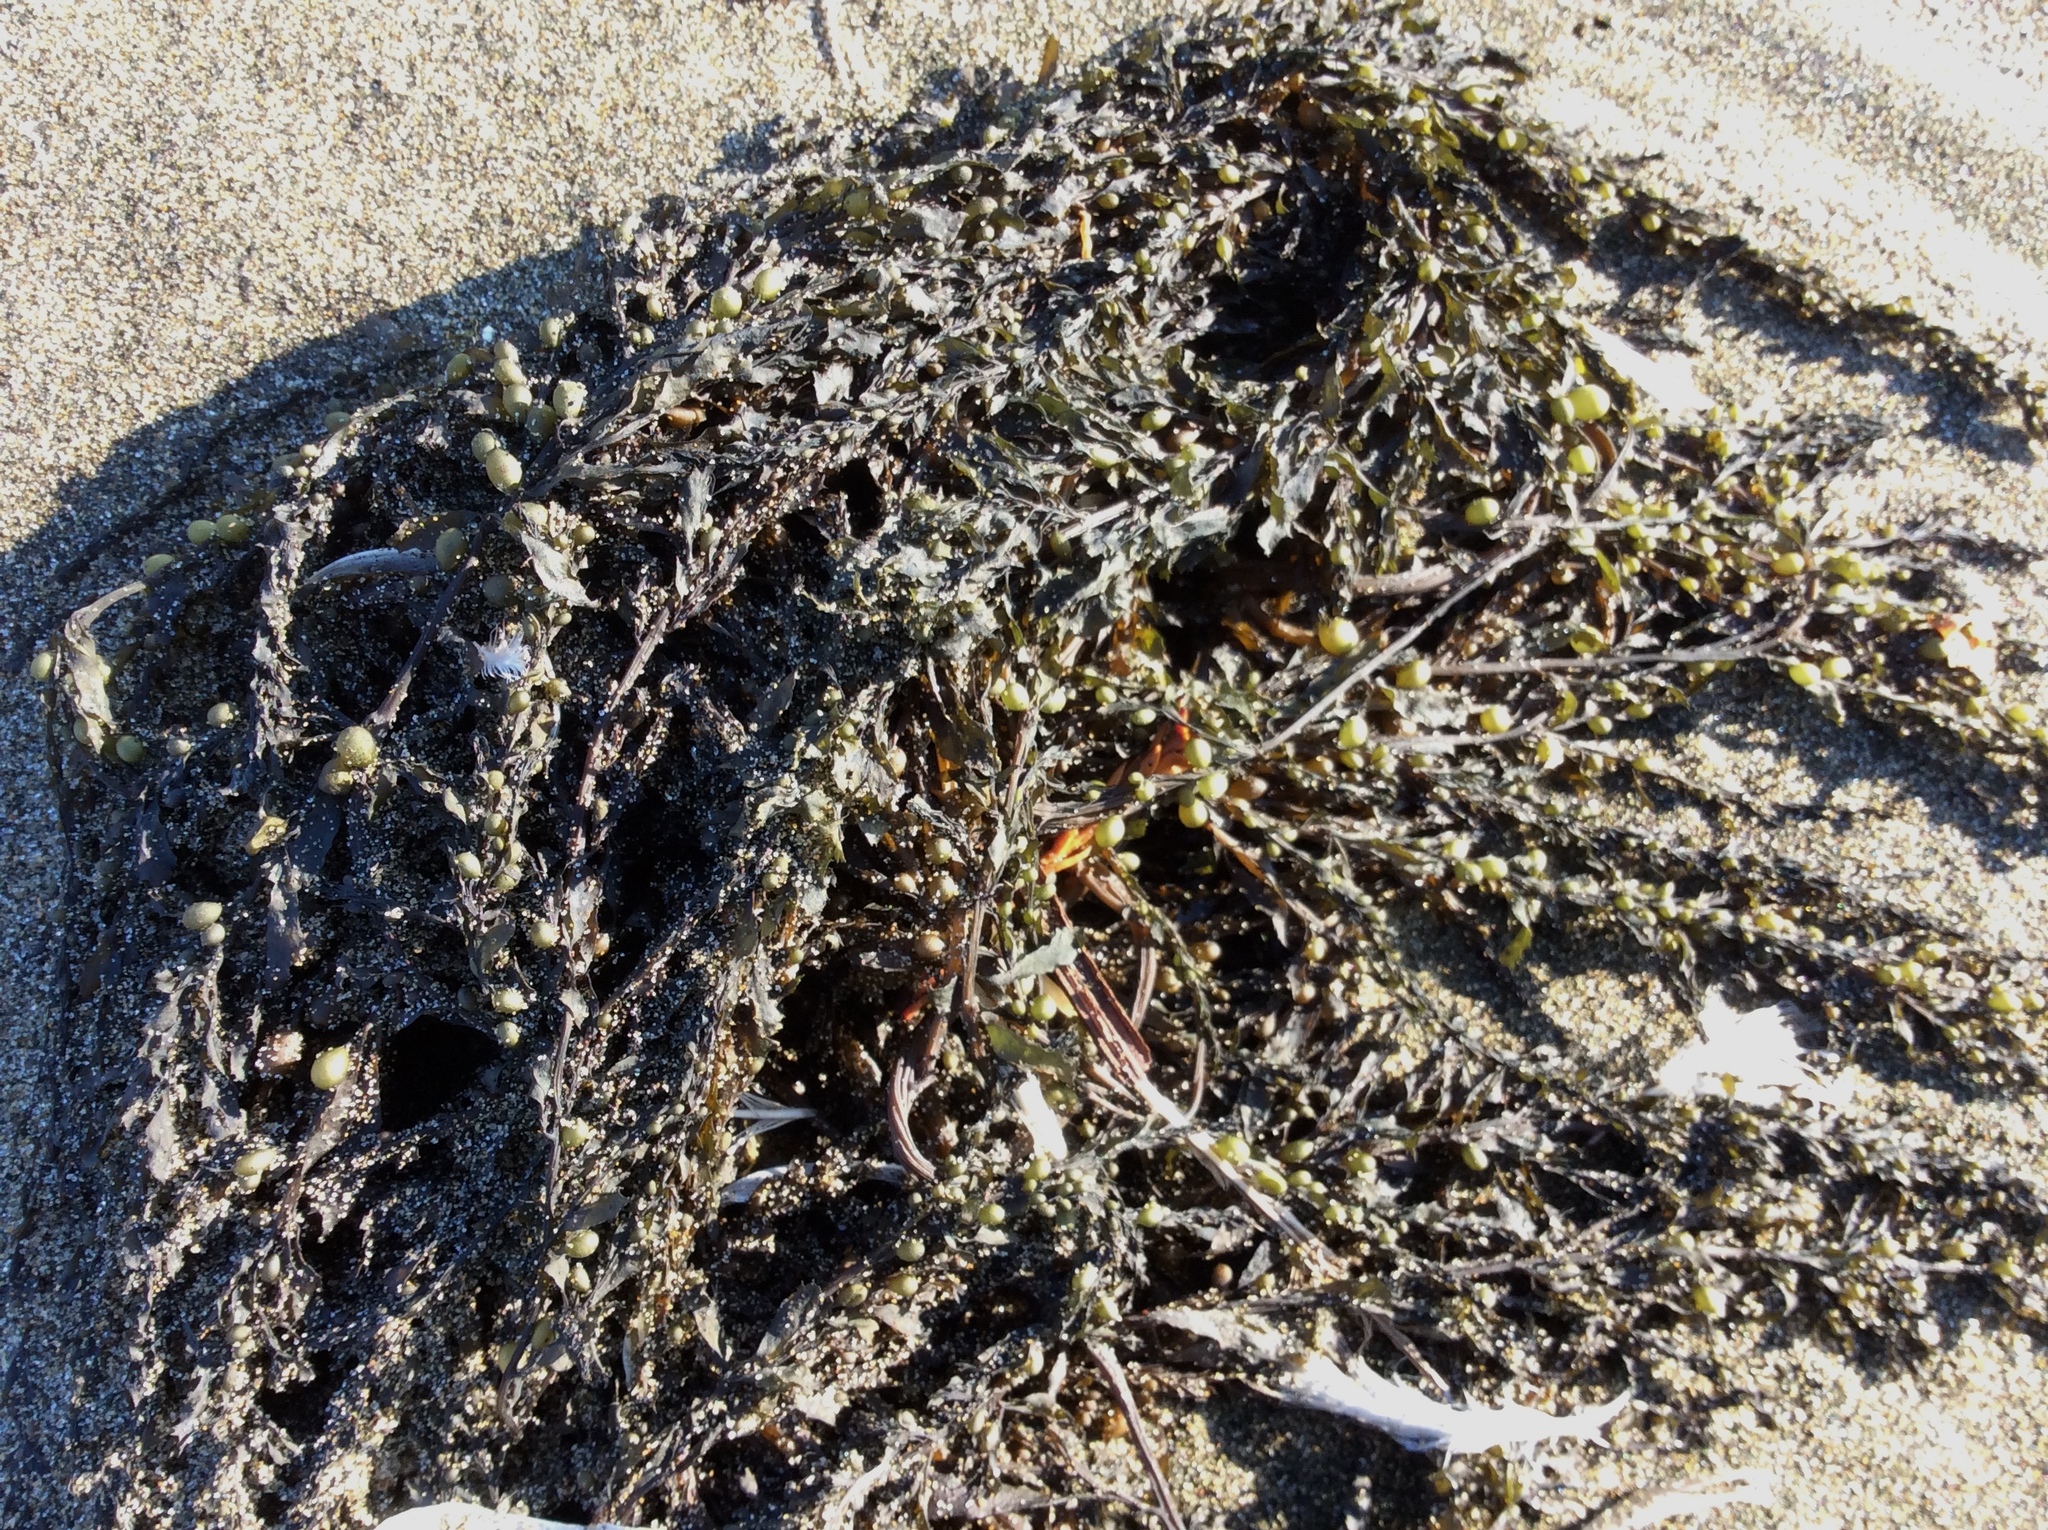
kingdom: Chromista
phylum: Ochrophyta
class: Phaeophyceae
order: Fucales
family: Sargassaceae
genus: Sargassum
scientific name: Sargassum muticum
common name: Japweed
